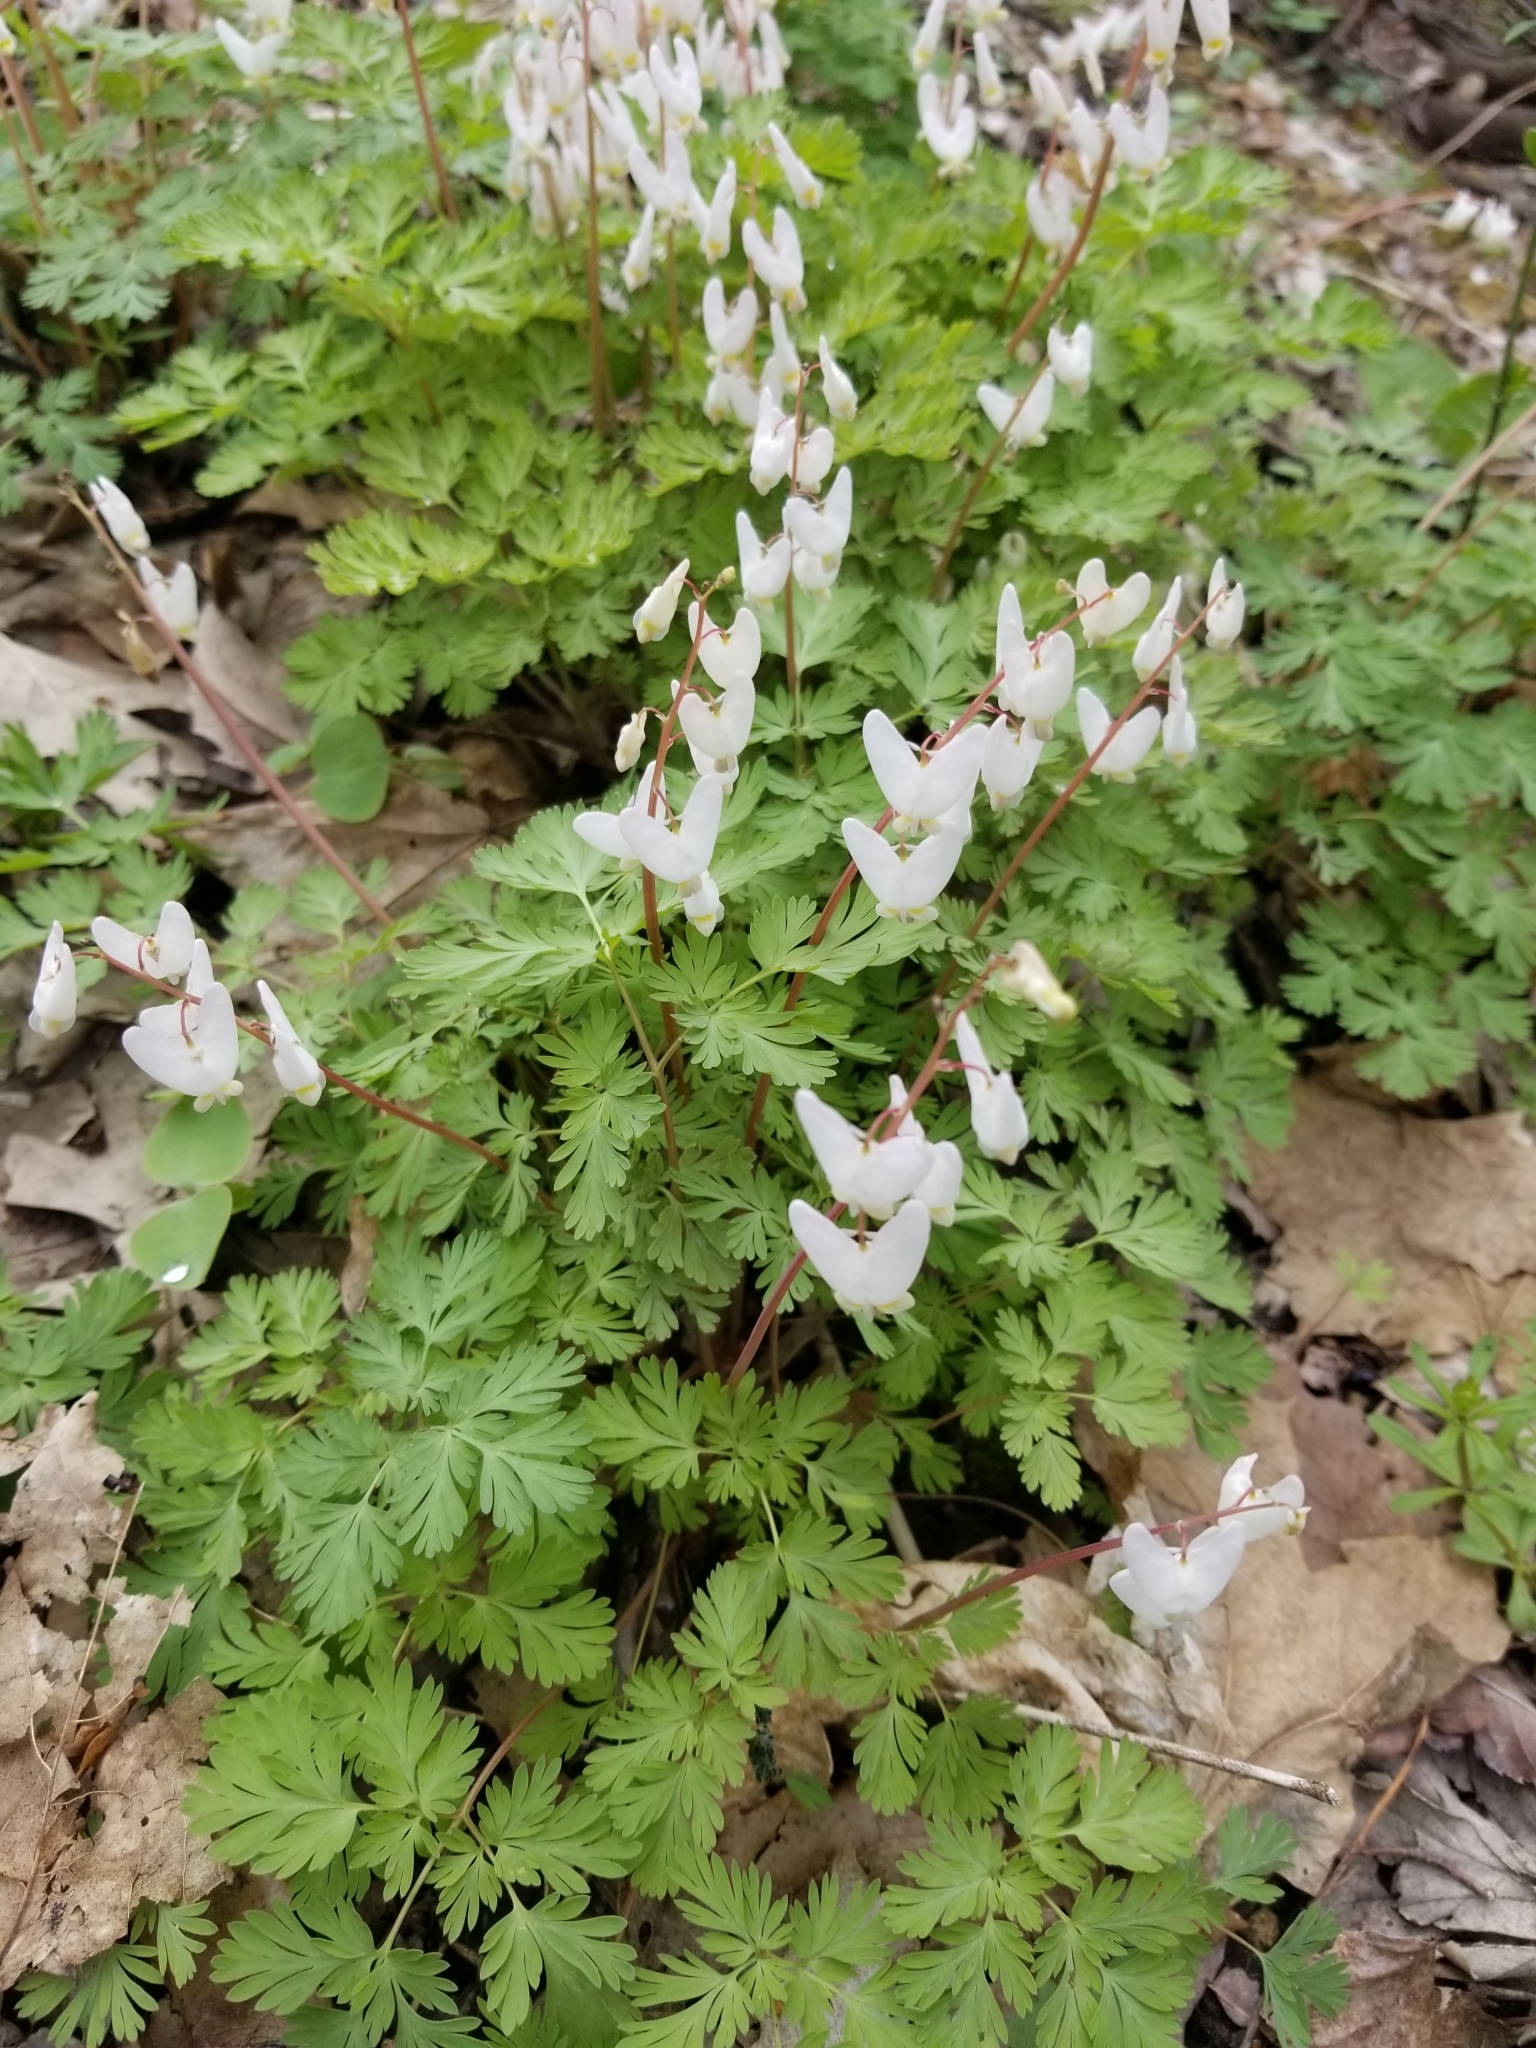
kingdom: Plantae
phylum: Tracheophyta
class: Magnoliopsida
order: Ranunculales
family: Papaveraceae
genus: Dicentra
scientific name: Dicentra cucullaria
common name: Dutchman's breeches
